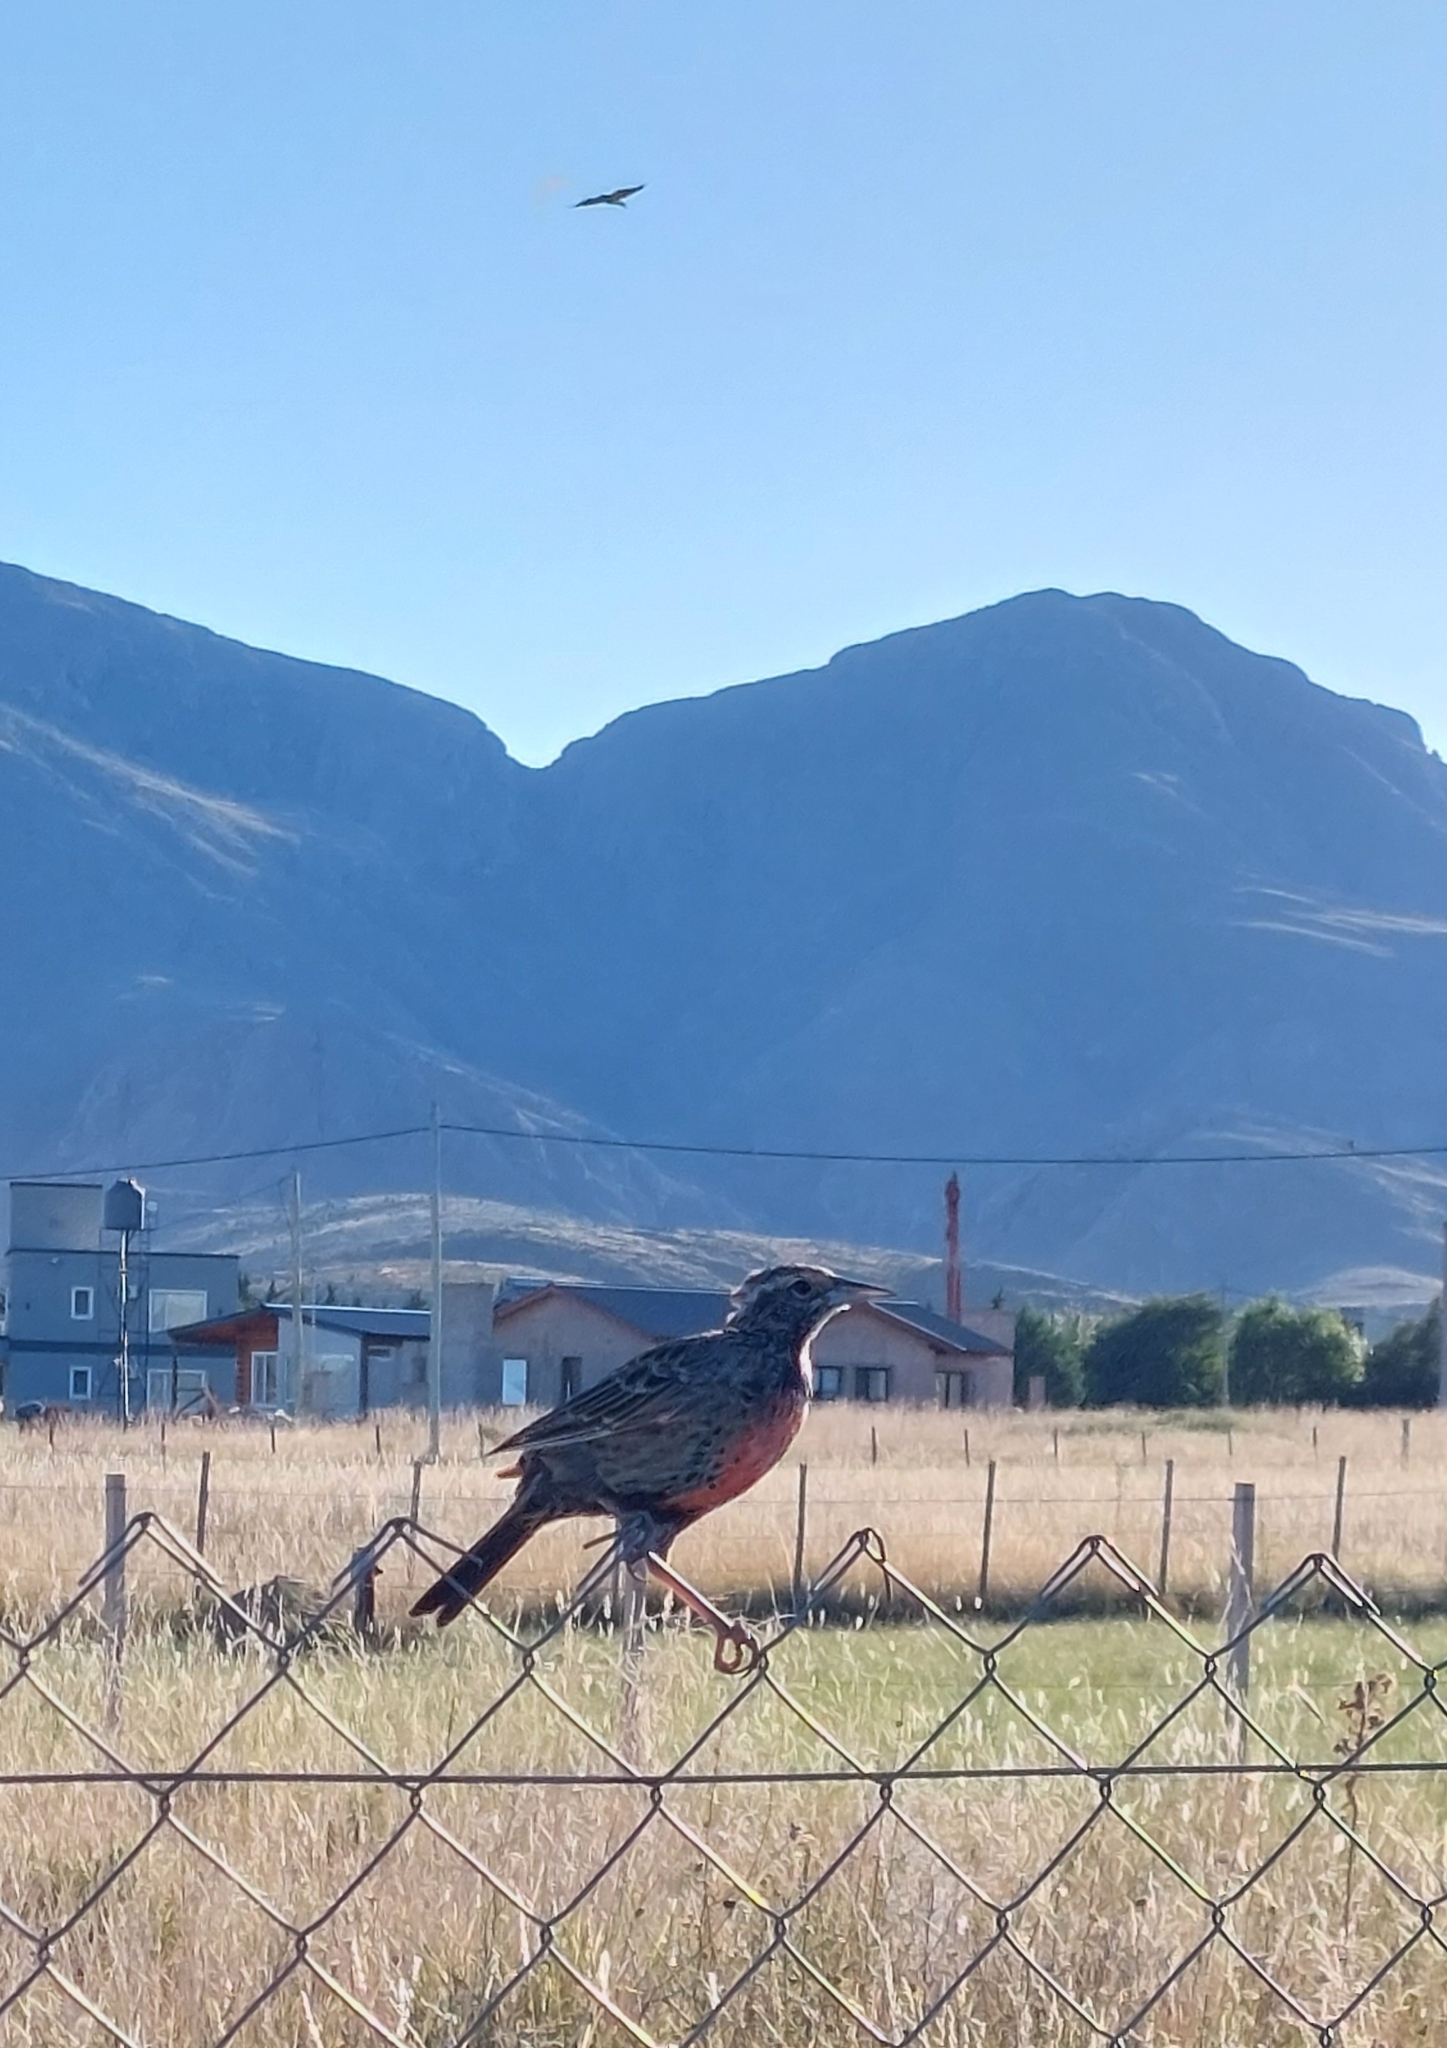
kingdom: Animalia
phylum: Chordata
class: Aves
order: Passeriformes
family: Icteridae
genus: Sturnella
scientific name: Sturnella loyca
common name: Long-tailed meadowlark
